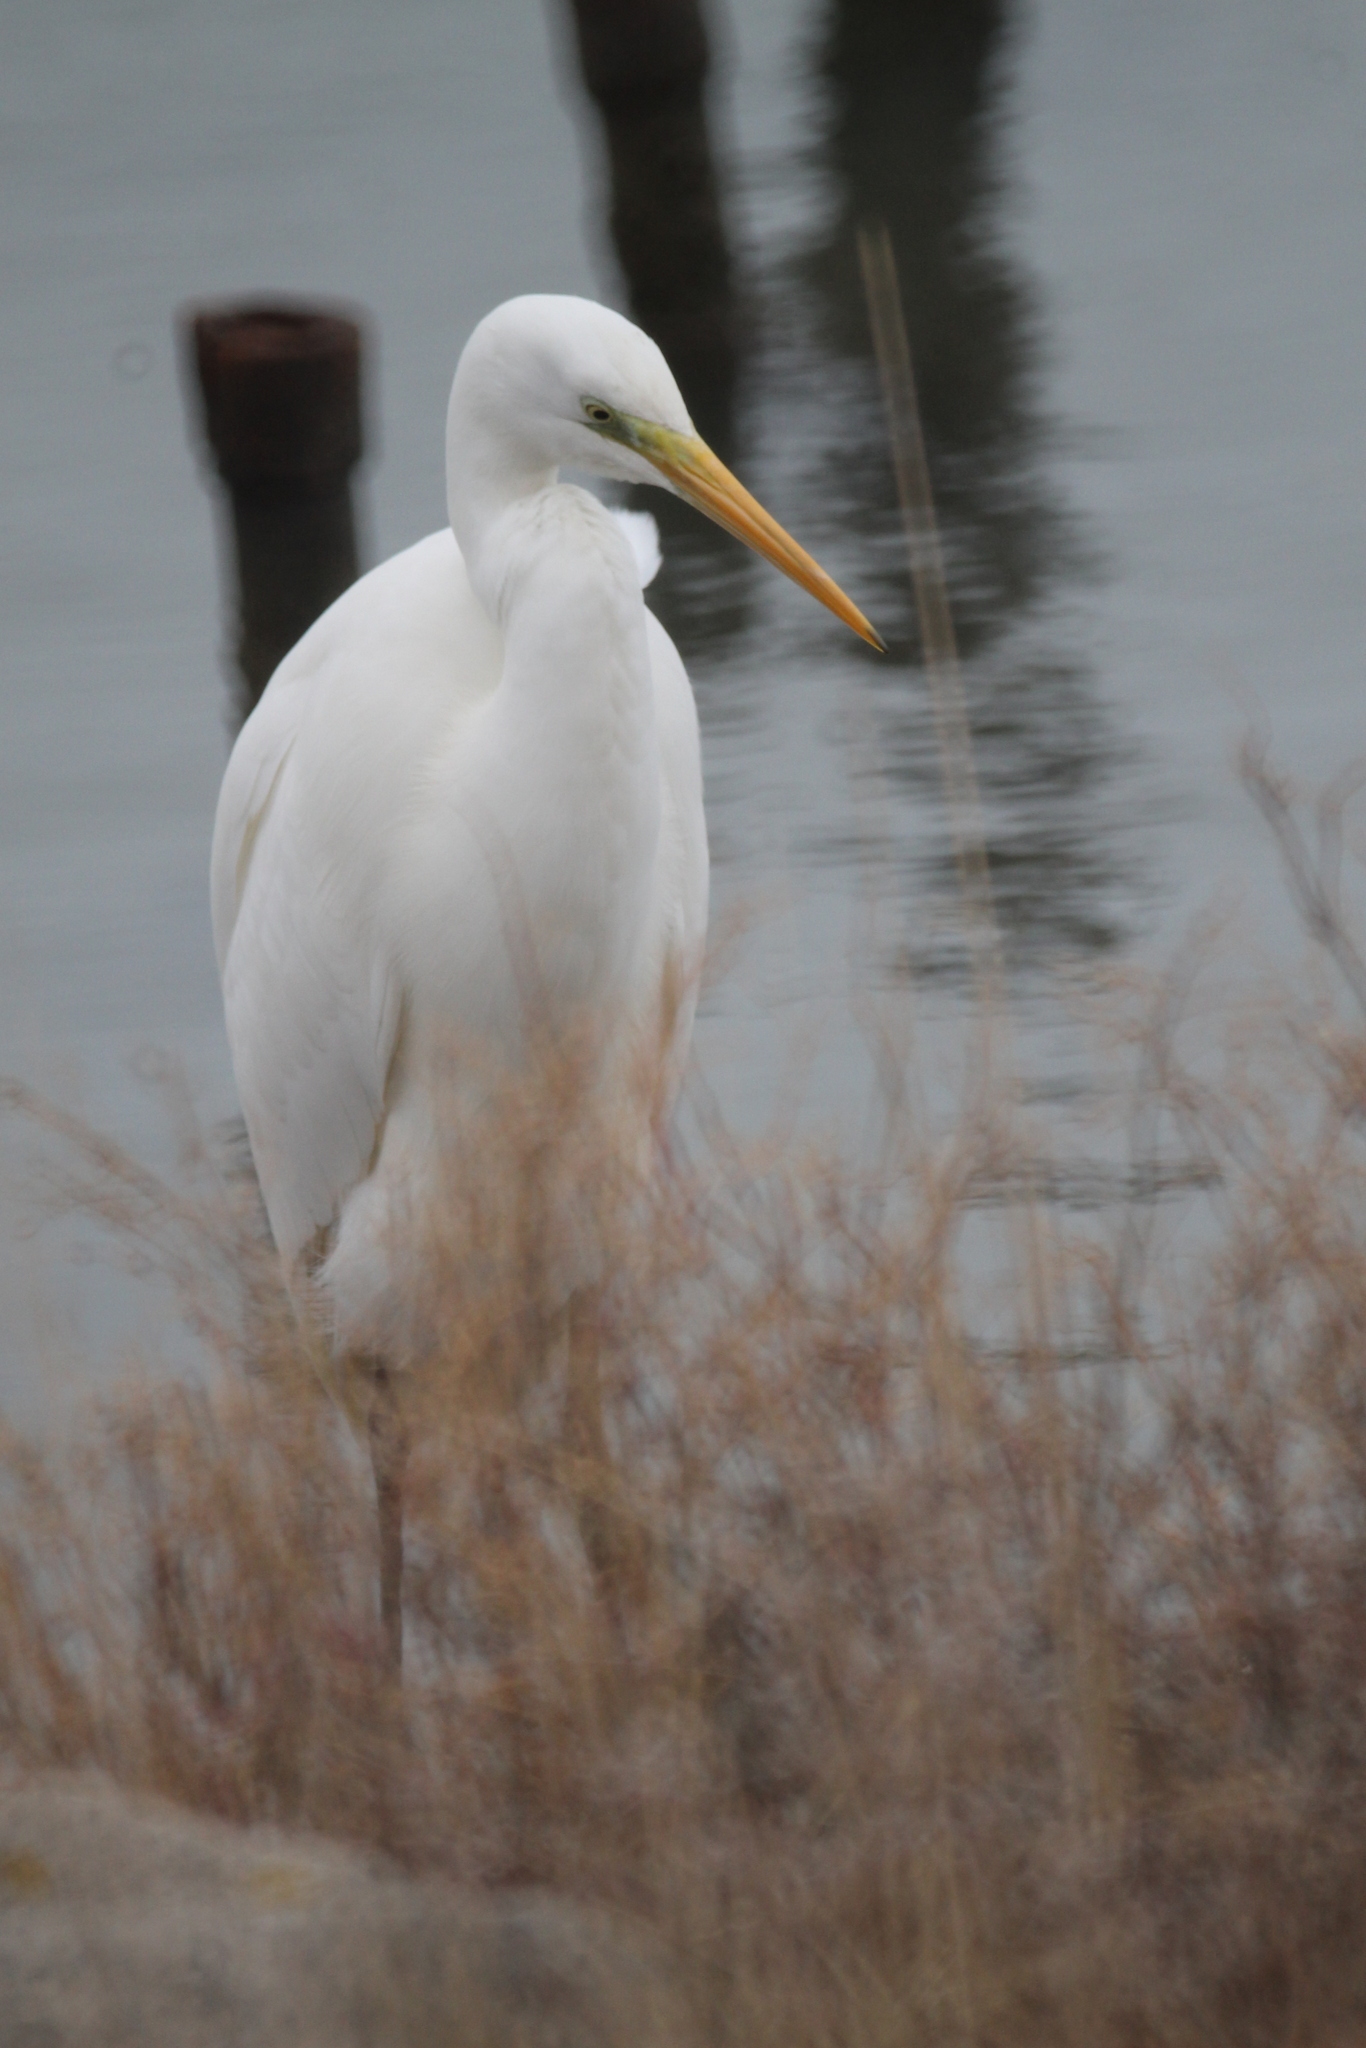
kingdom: Animalia
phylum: Chordata
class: Aves
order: Pelecaniformes
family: Ardeidae
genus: Ardea
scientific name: Ardea alba
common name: Great egret
